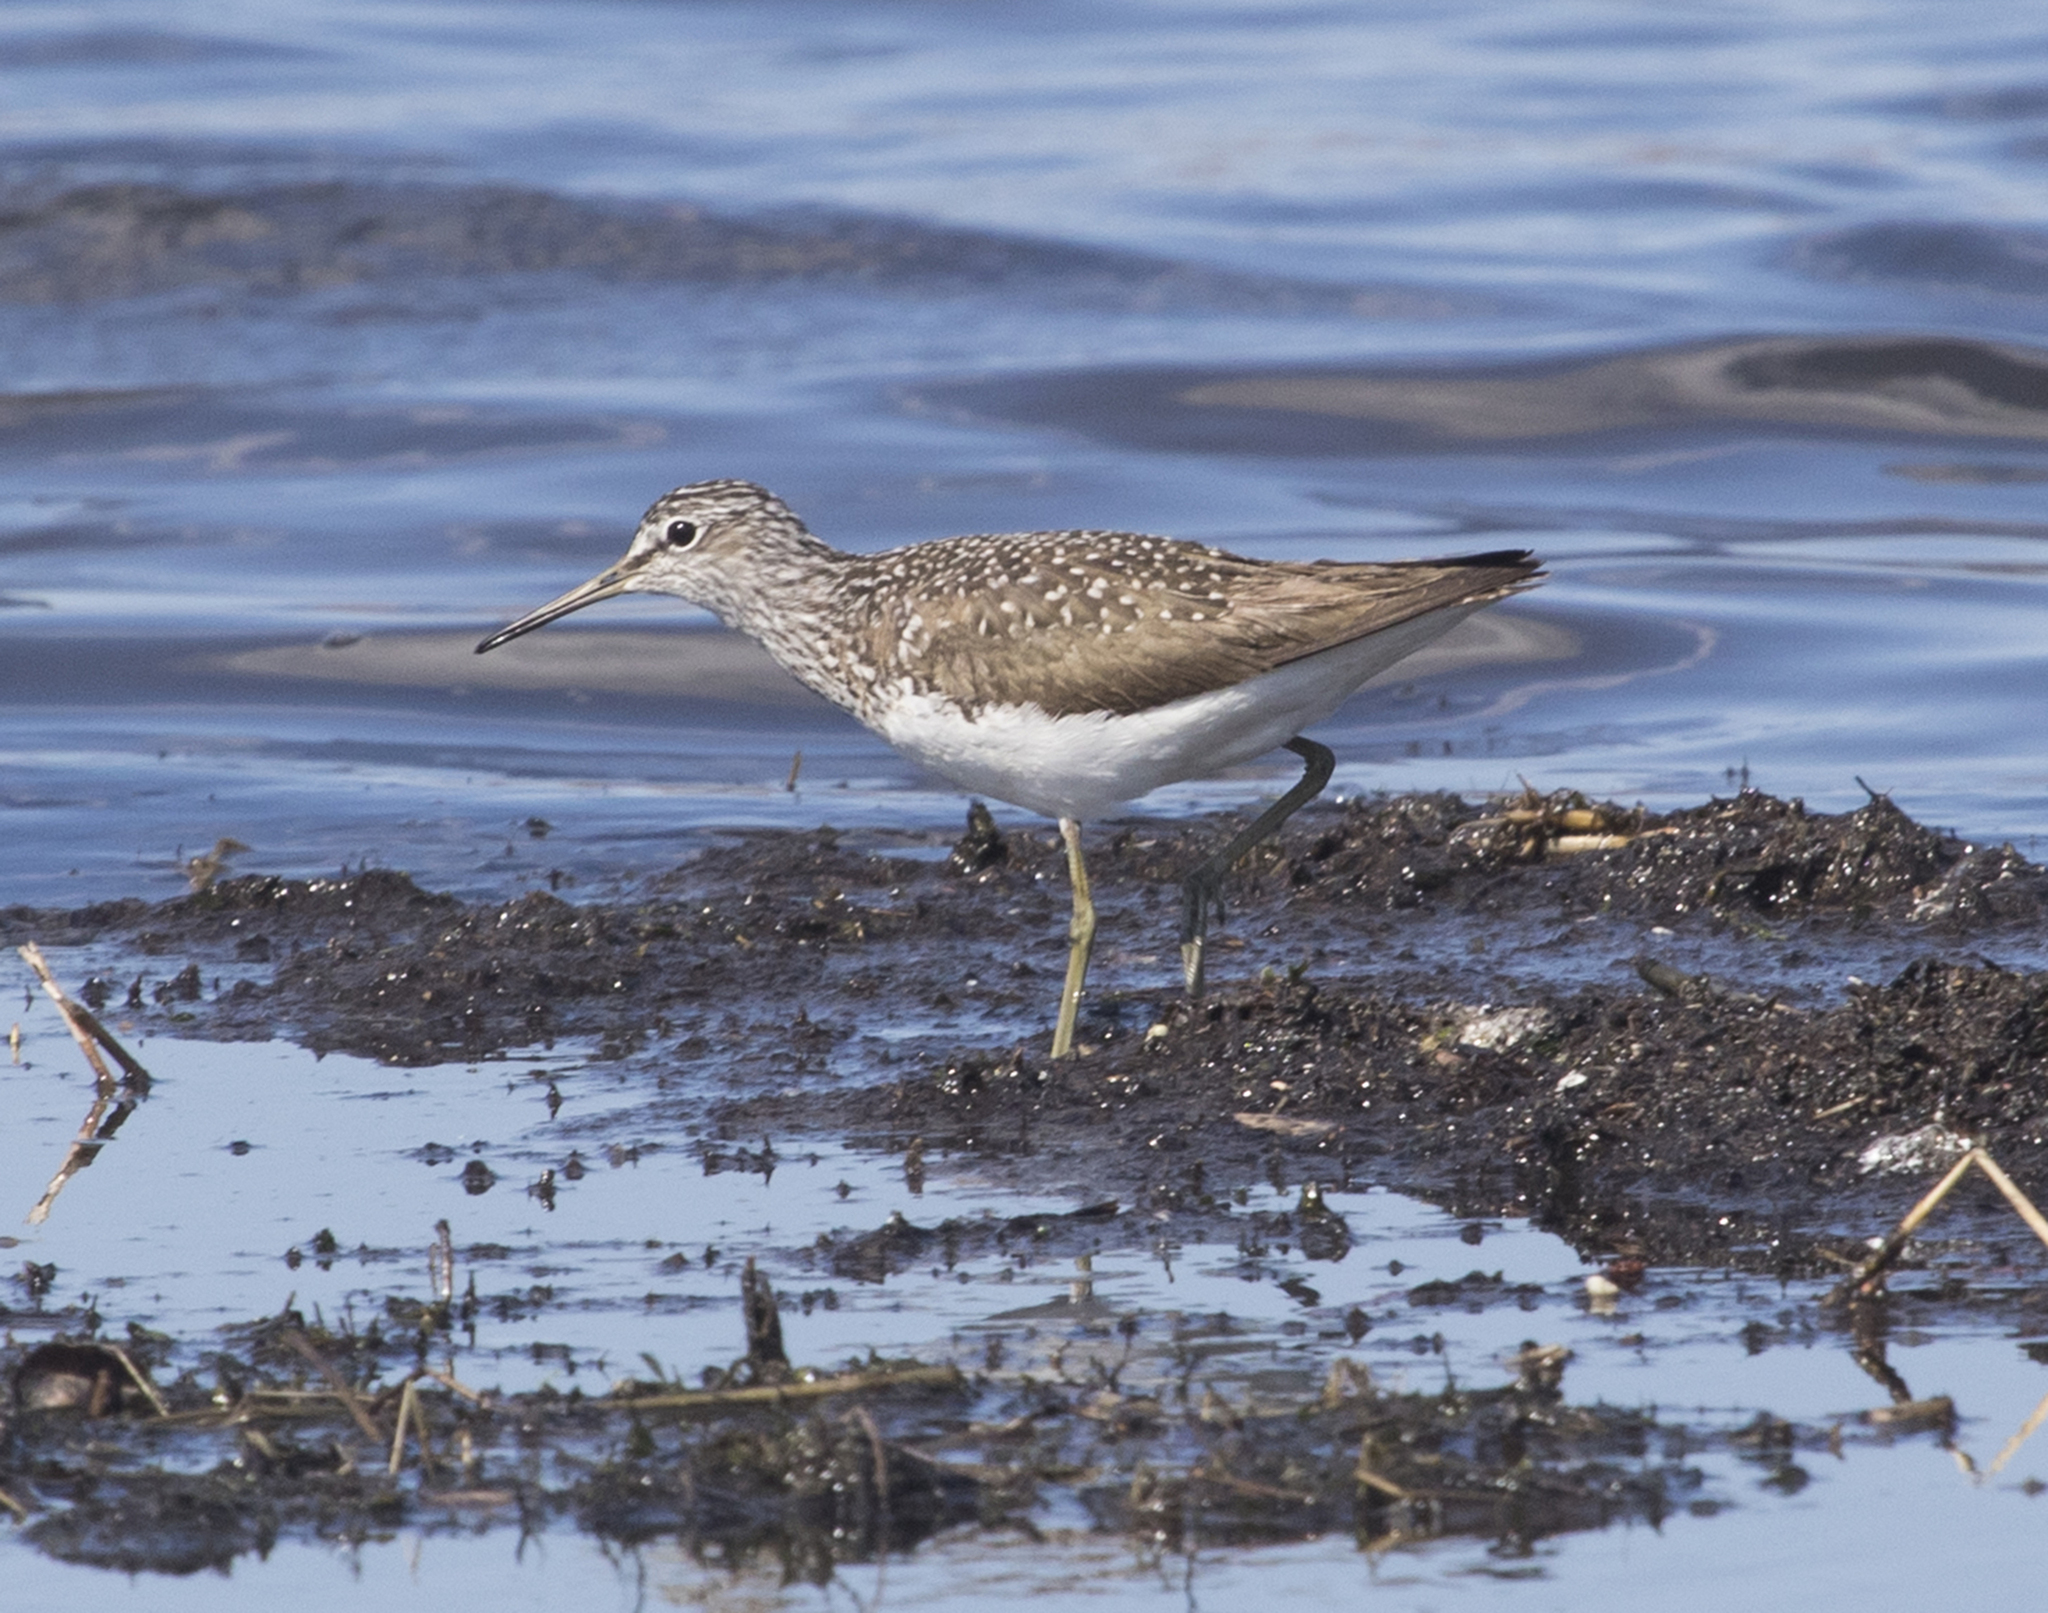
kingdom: Animalia
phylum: Chordata
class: Aves
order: Charadriiformes
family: Scolopacidae
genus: Tringa
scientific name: Tringa ochropus
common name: Green sandpiper
